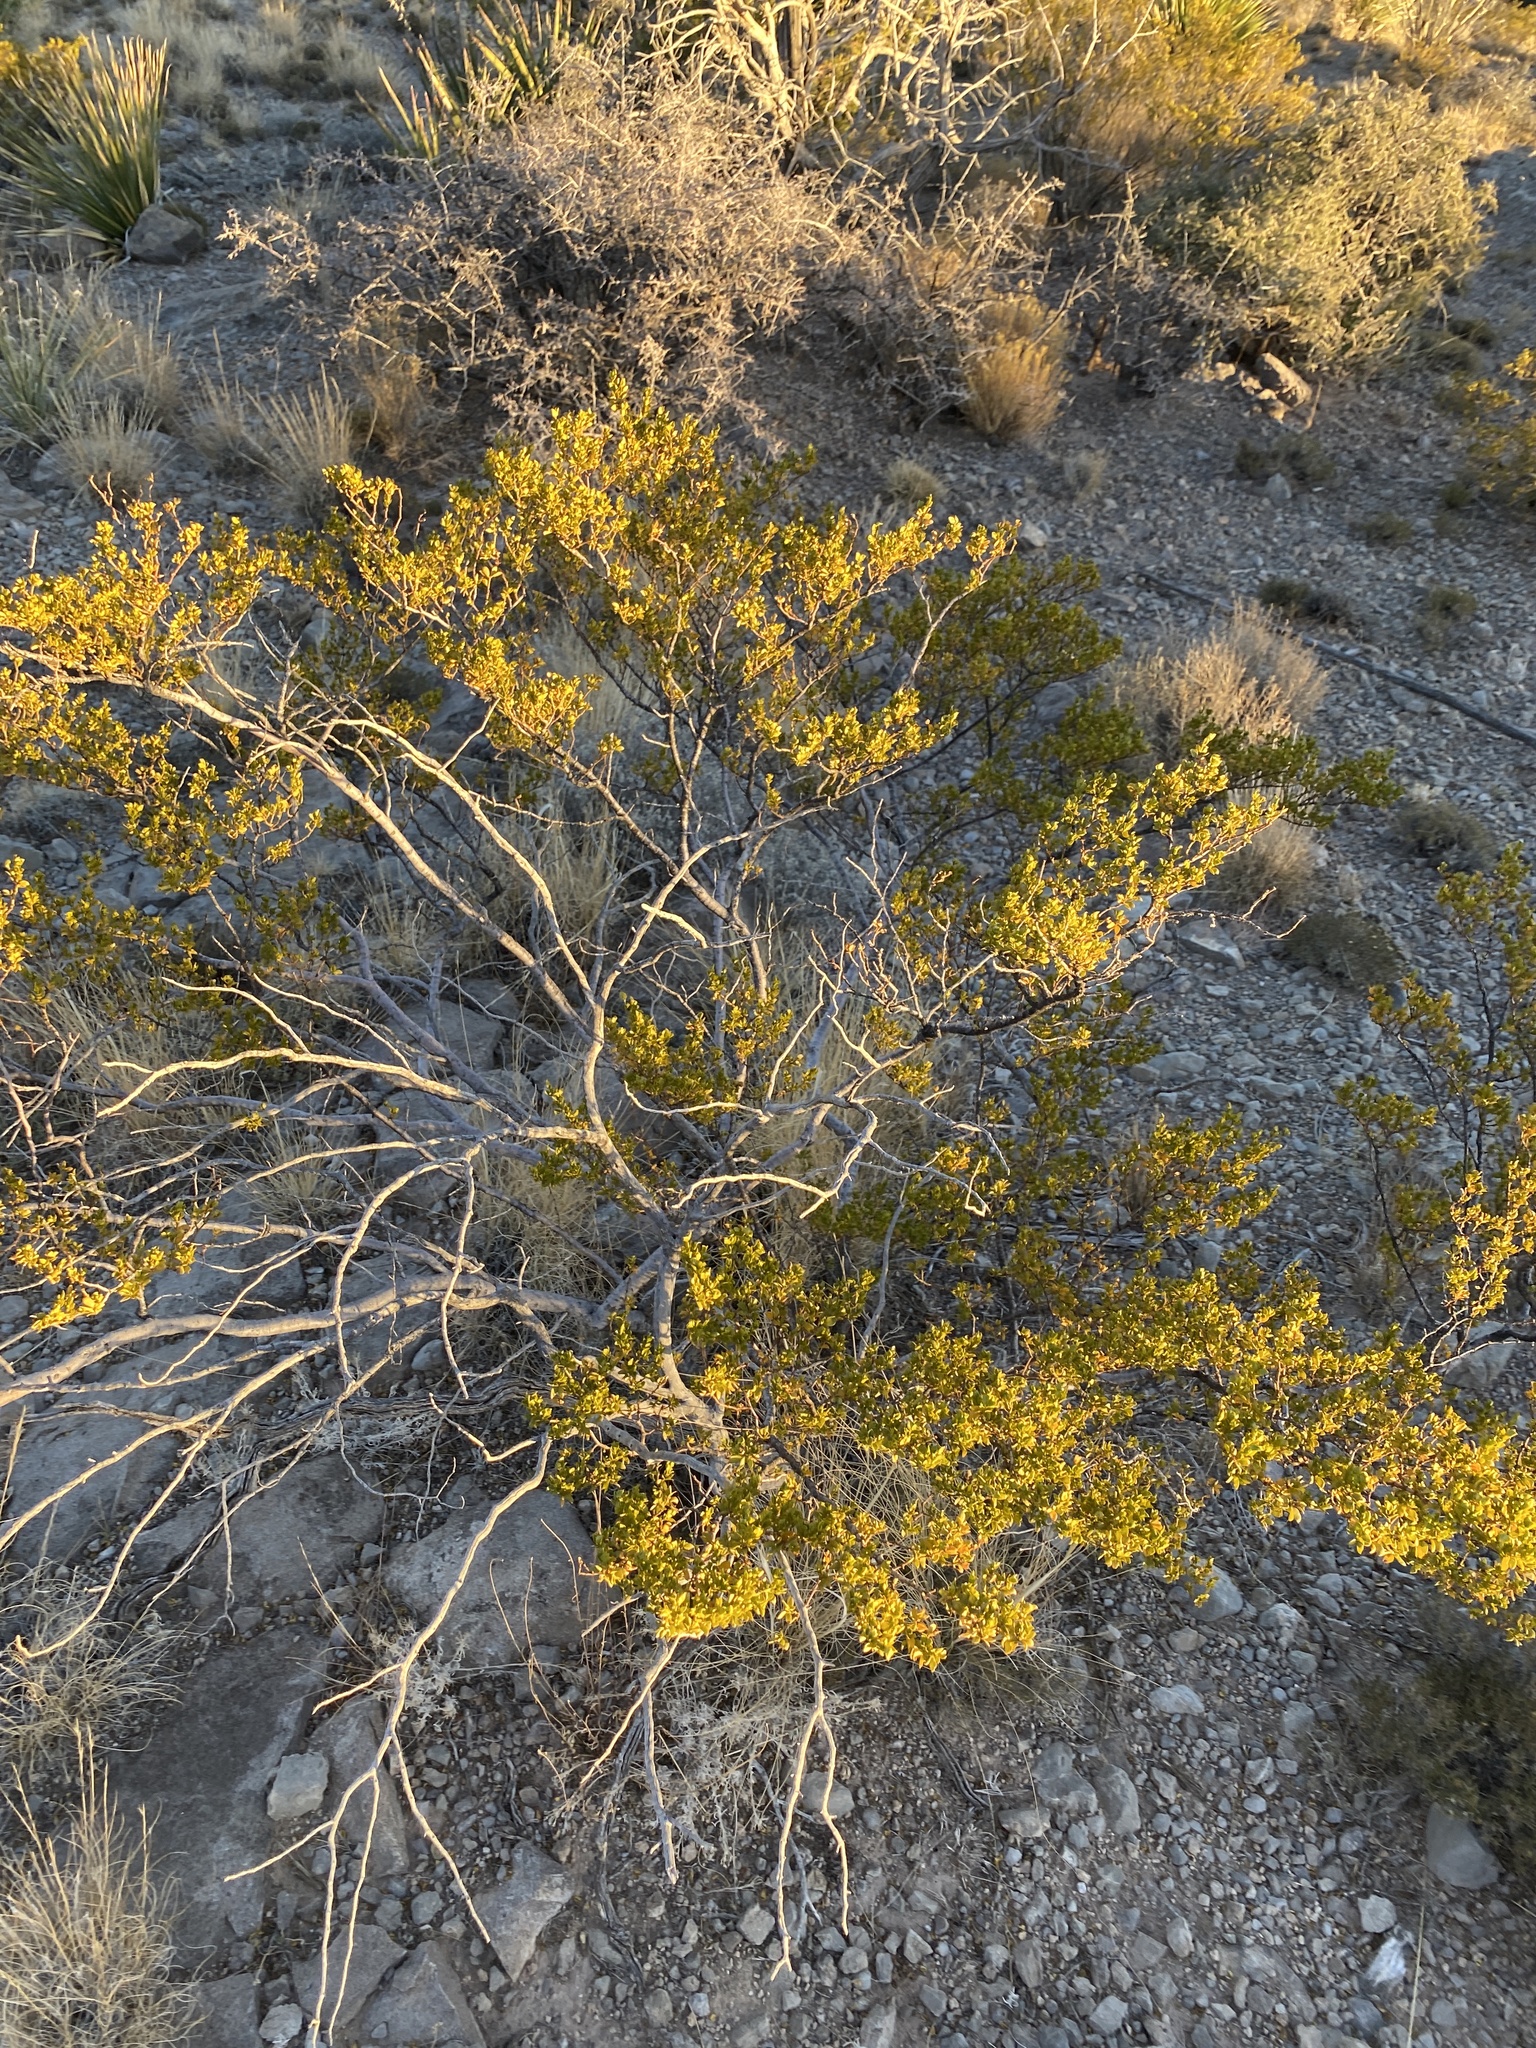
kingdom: Plantae
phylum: Tracheophyta
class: Magnoliopsida
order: Zygophyllales
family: Zygophyllaceae
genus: Larrea
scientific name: Larrea tridentata
